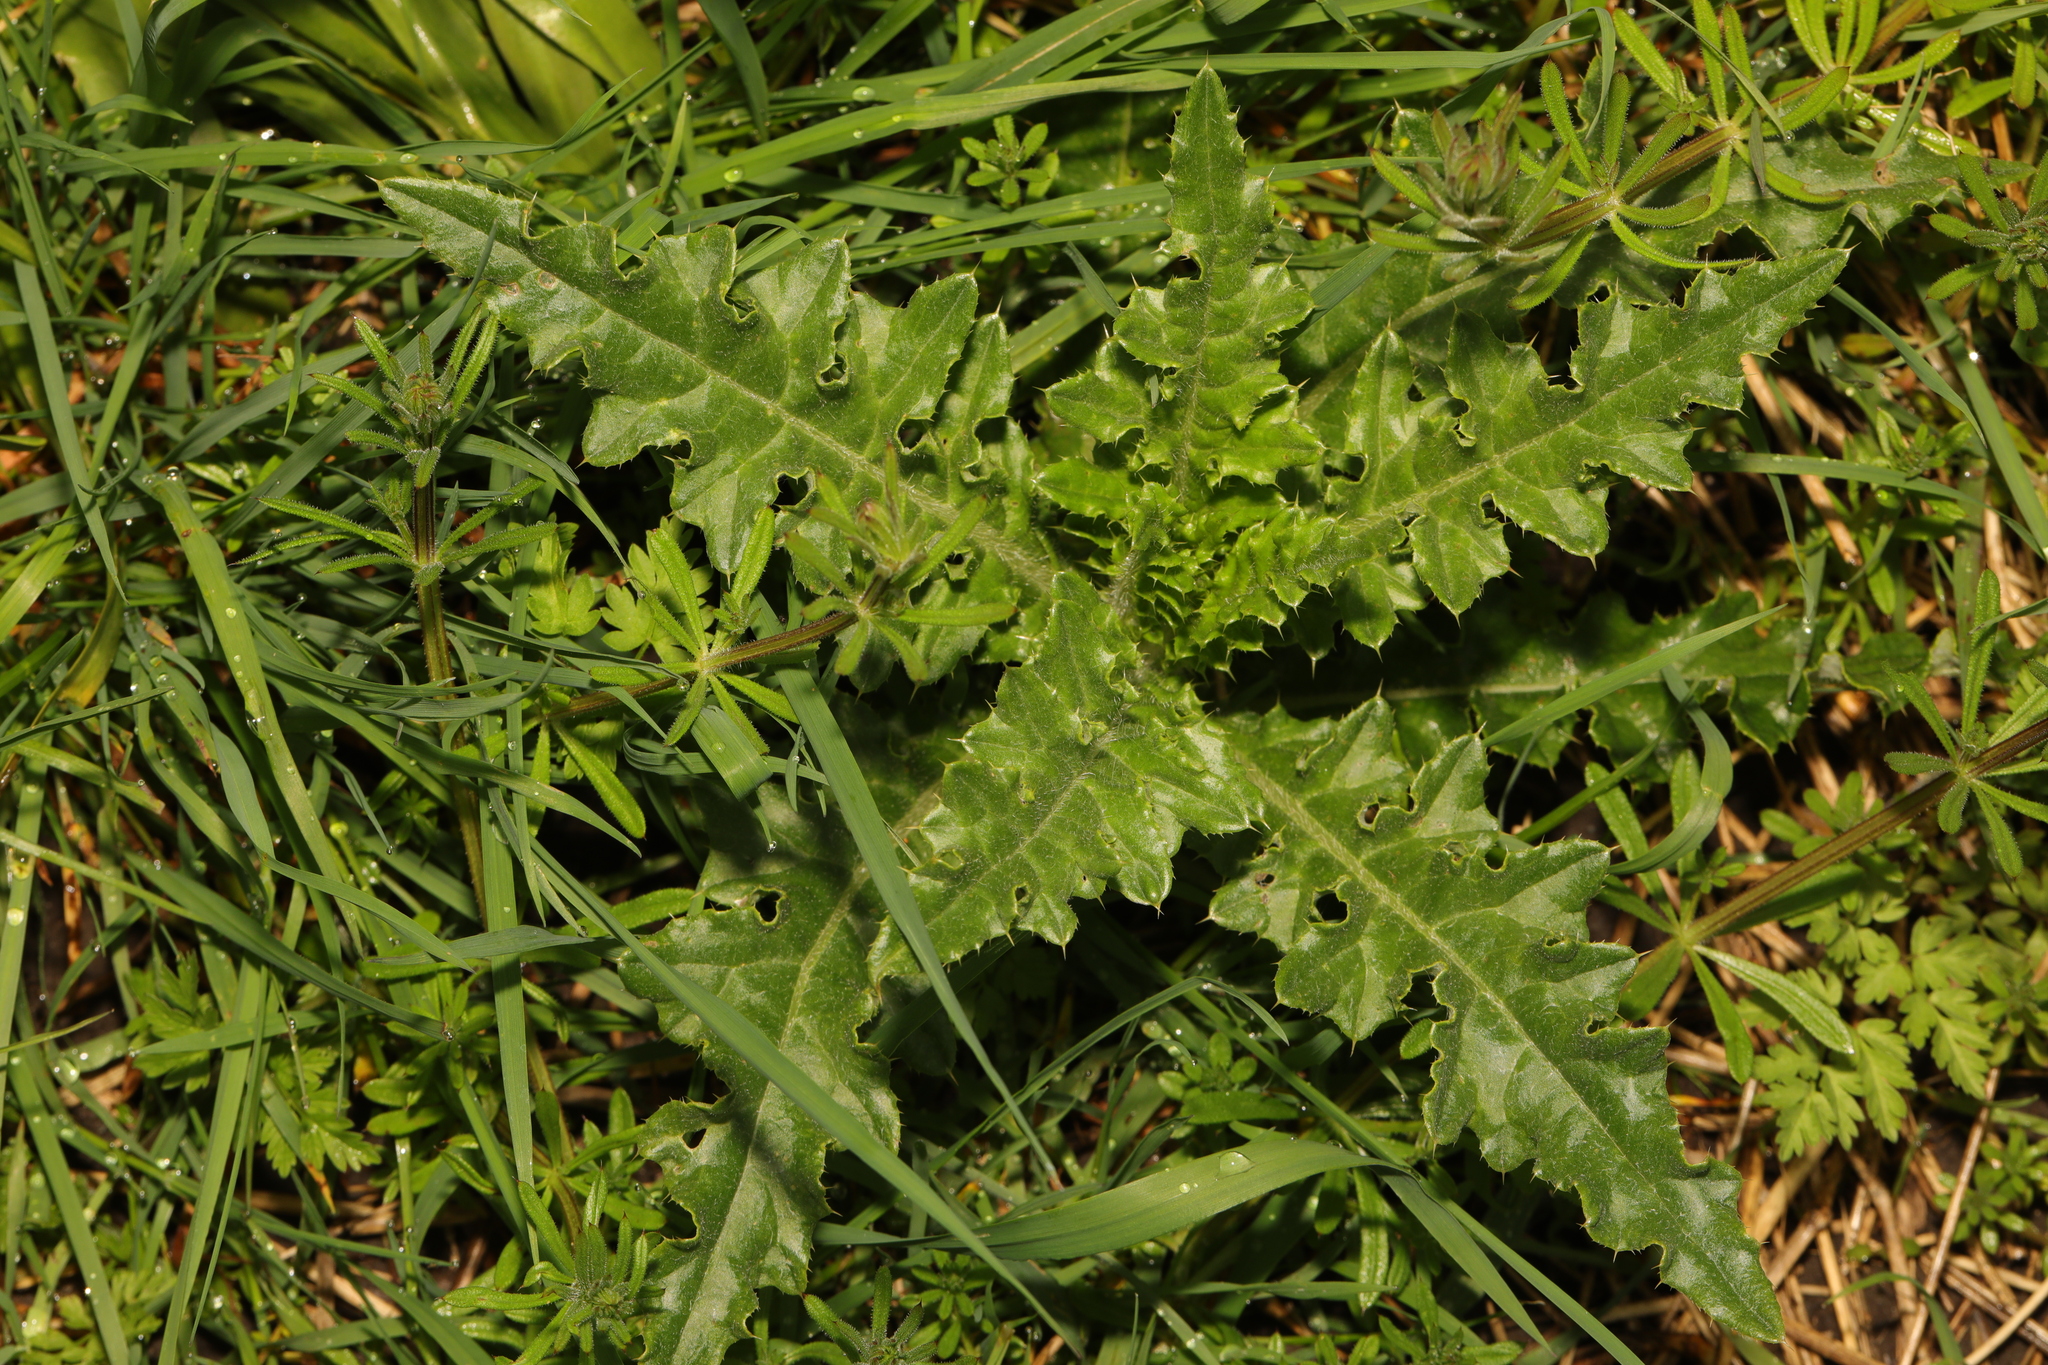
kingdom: Plantae
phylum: Tracheophyta
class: Magnoliopsida
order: Asterales
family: Asteraceae
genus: Cirsium
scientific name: Cirsium arvense
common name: Creeping thistle
